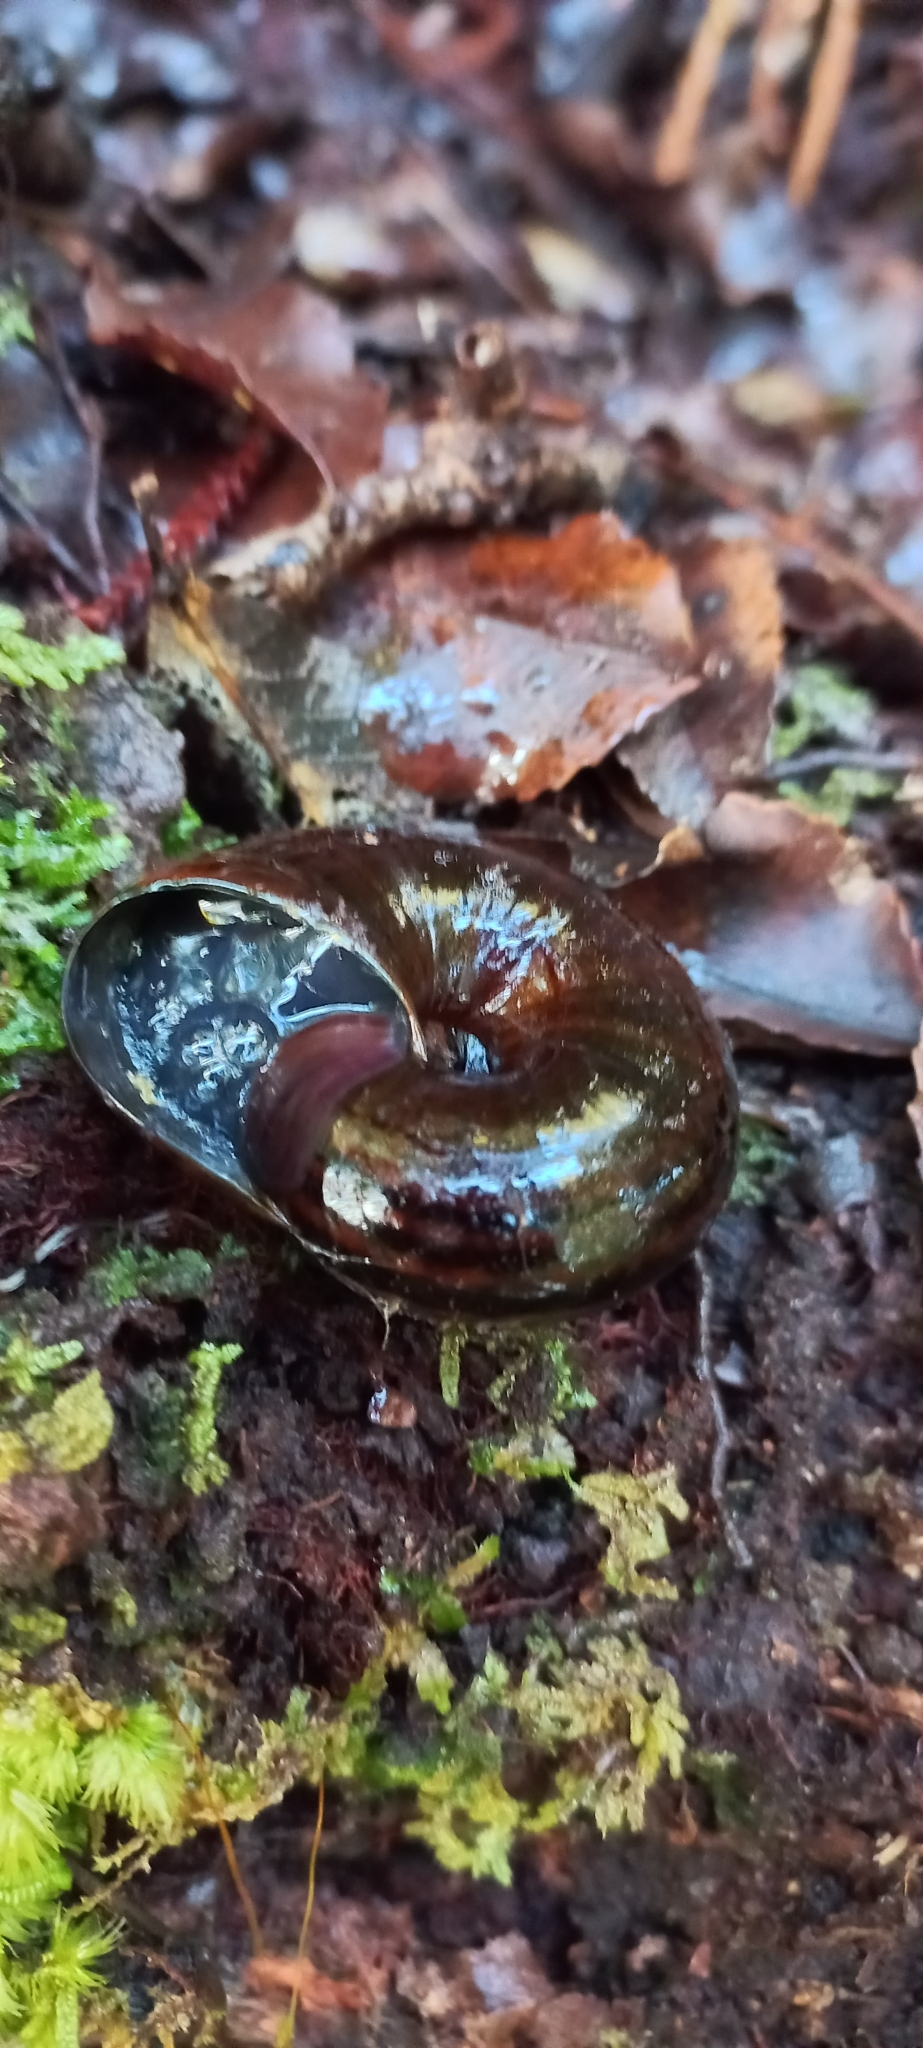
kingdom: Animalia
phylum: Mollusca
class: Gastropoda
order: Stylommatophora
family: Rhytididae
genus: Powelliphanta
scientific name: Powelliphanta gilliesi
